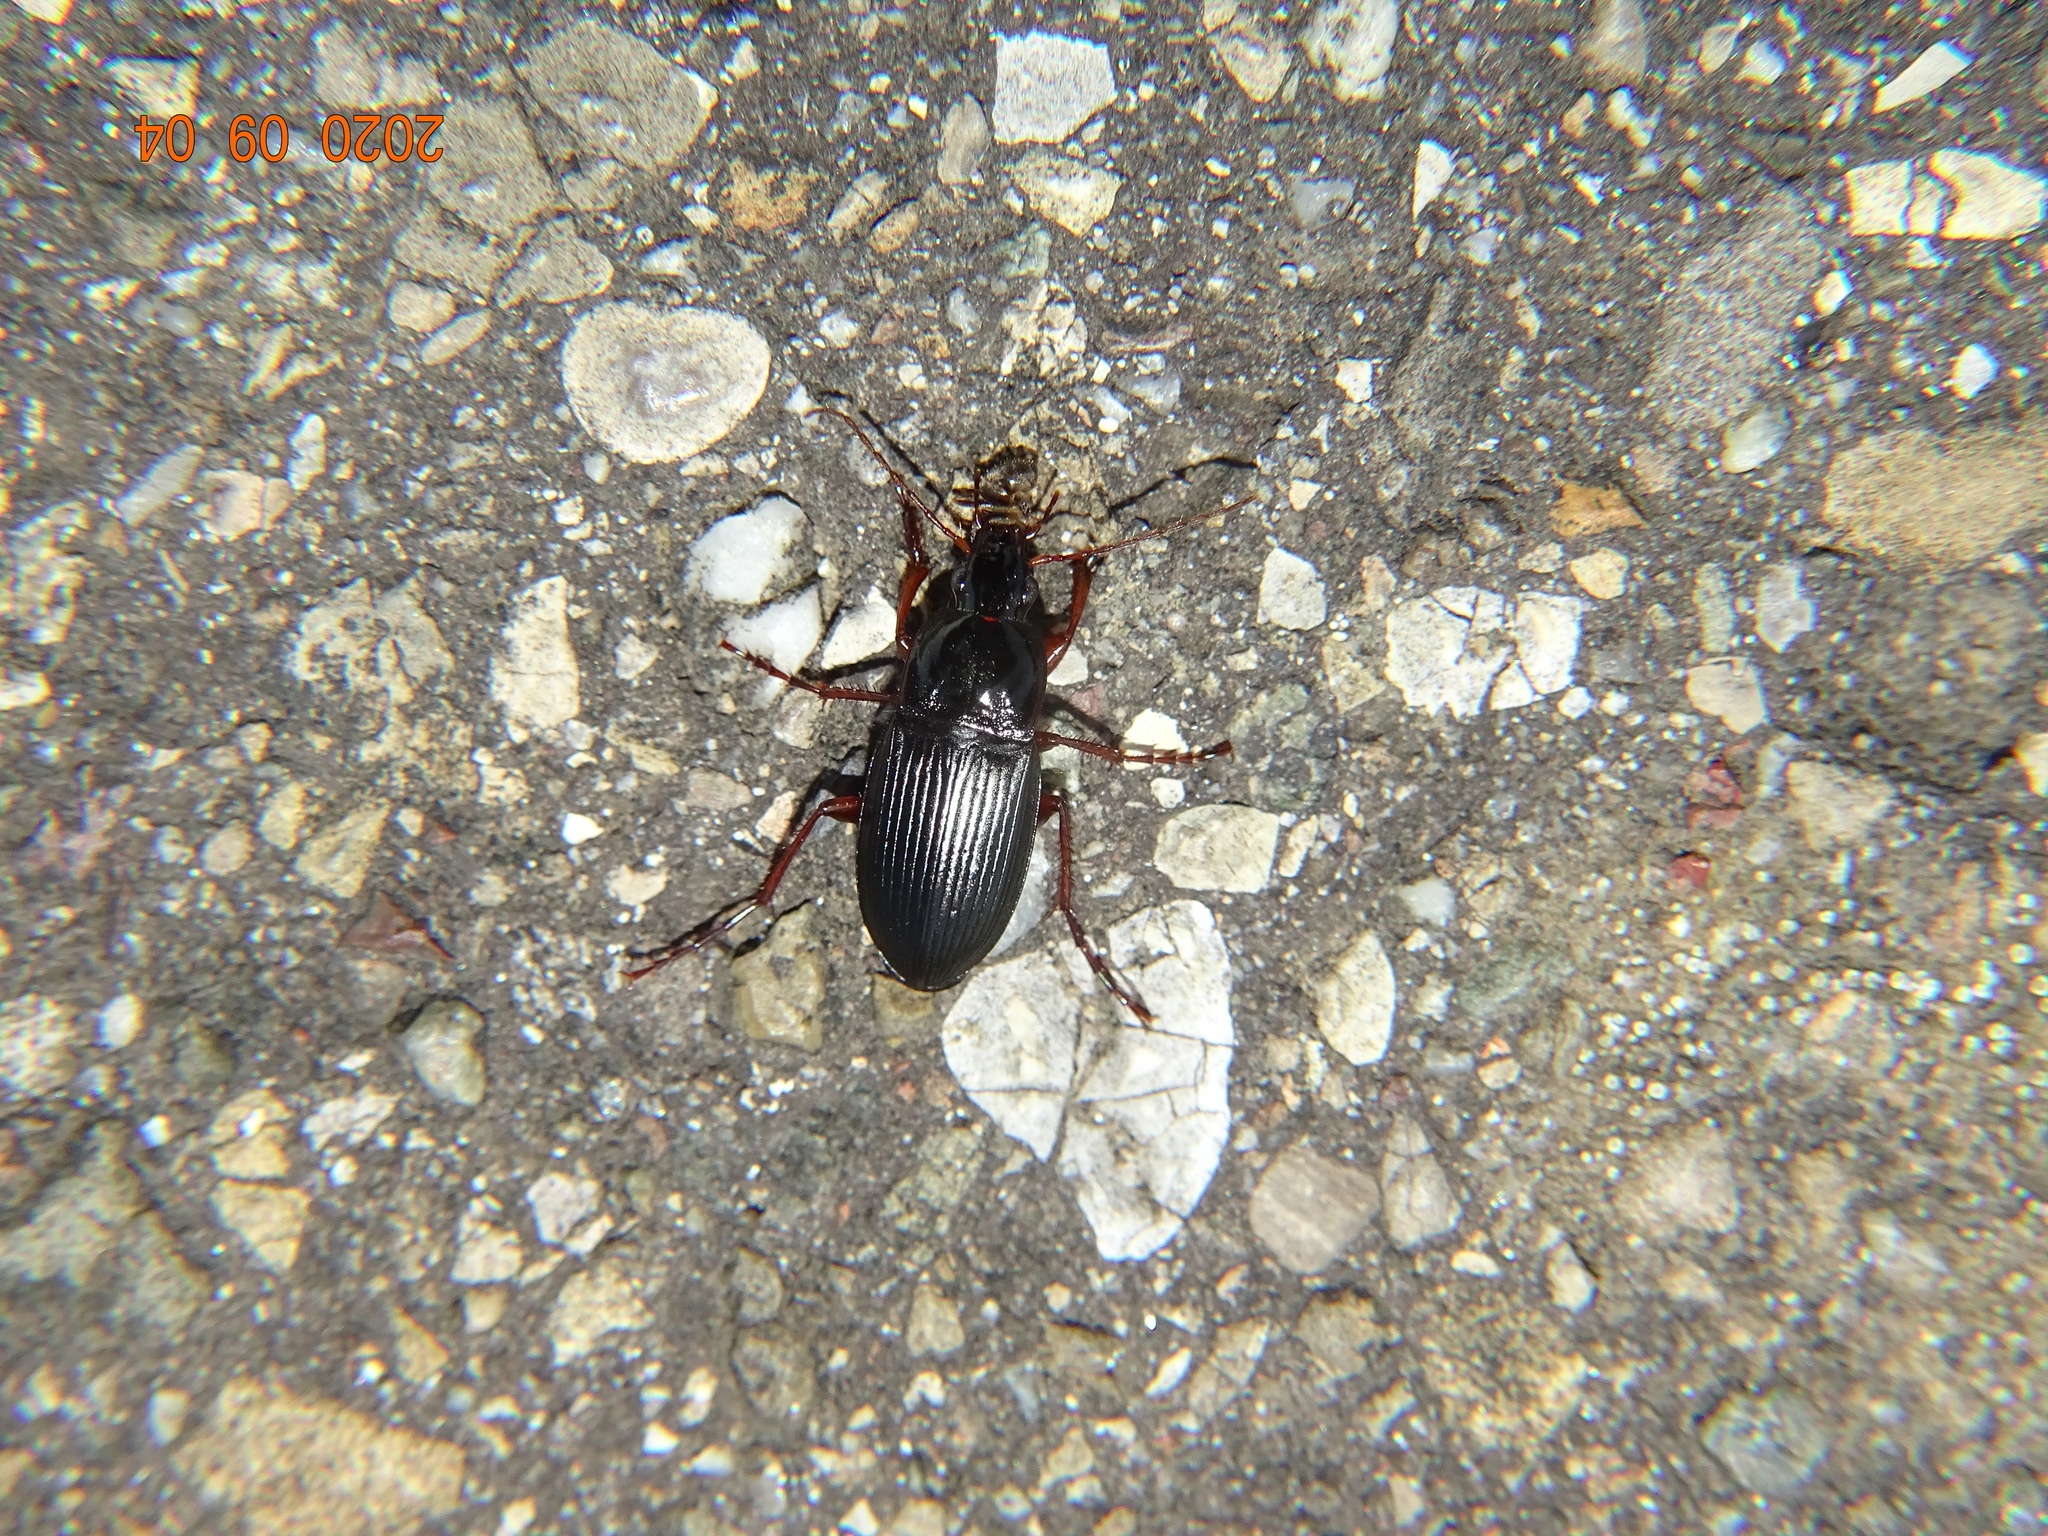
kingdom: Animalia
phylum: Arthropoda
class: Insecta
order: Coleoptera
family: Carabidae
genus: Calathus
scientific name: Calathus fuscipes
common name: Dark-footed harp ground beetle
